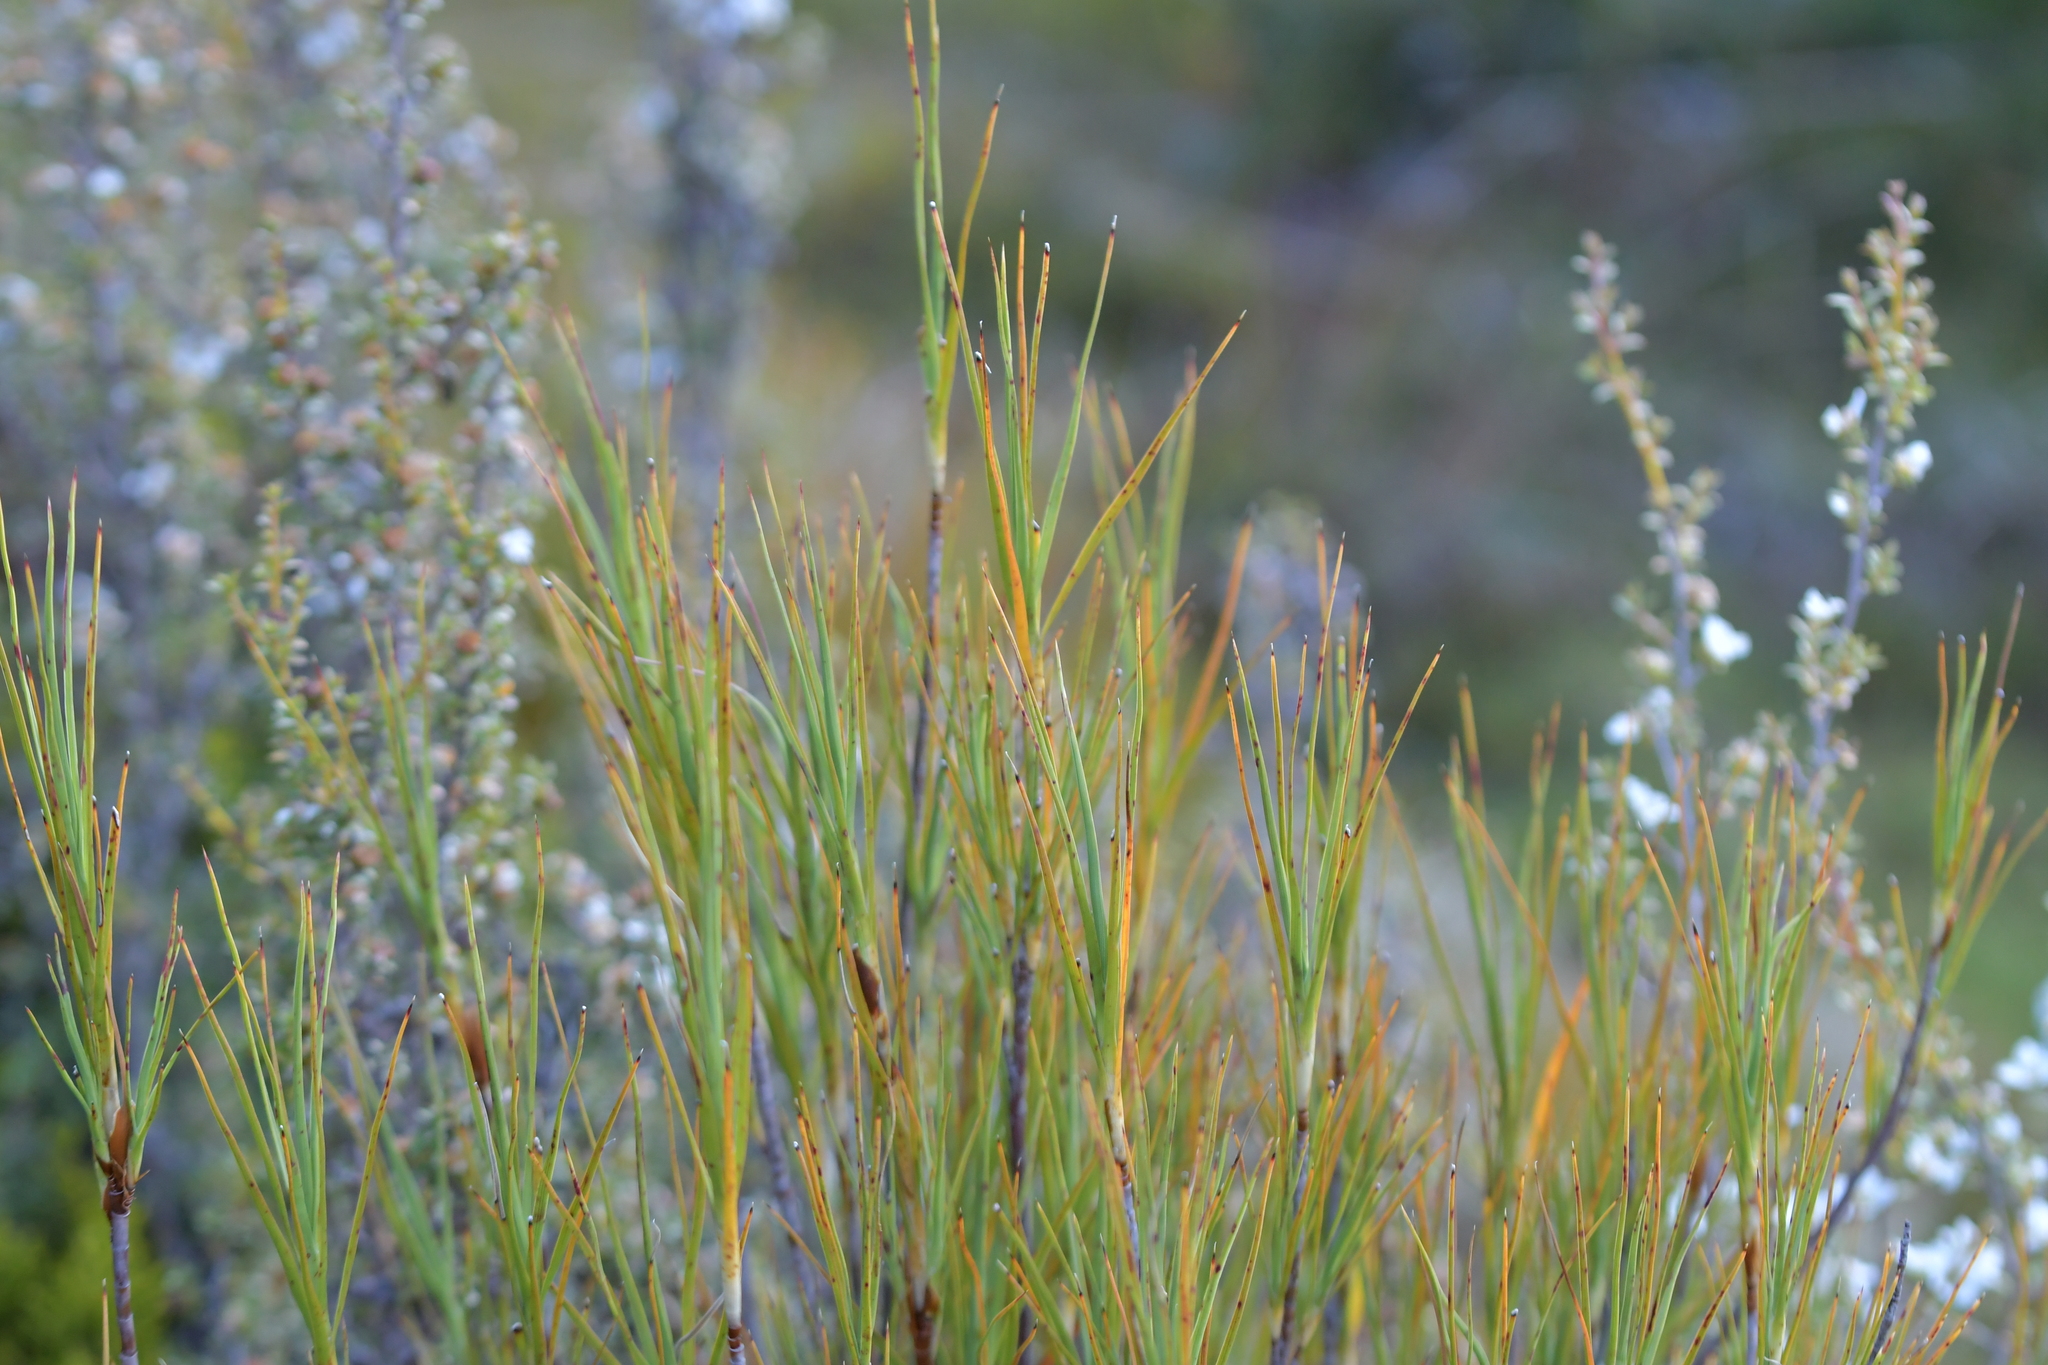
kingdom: Plantae
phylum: Tracheophyta
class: Magnoliopsida
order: Ericales
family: Ericaceae
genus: Dracophyllum
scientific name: Dracophyllum longifolium
